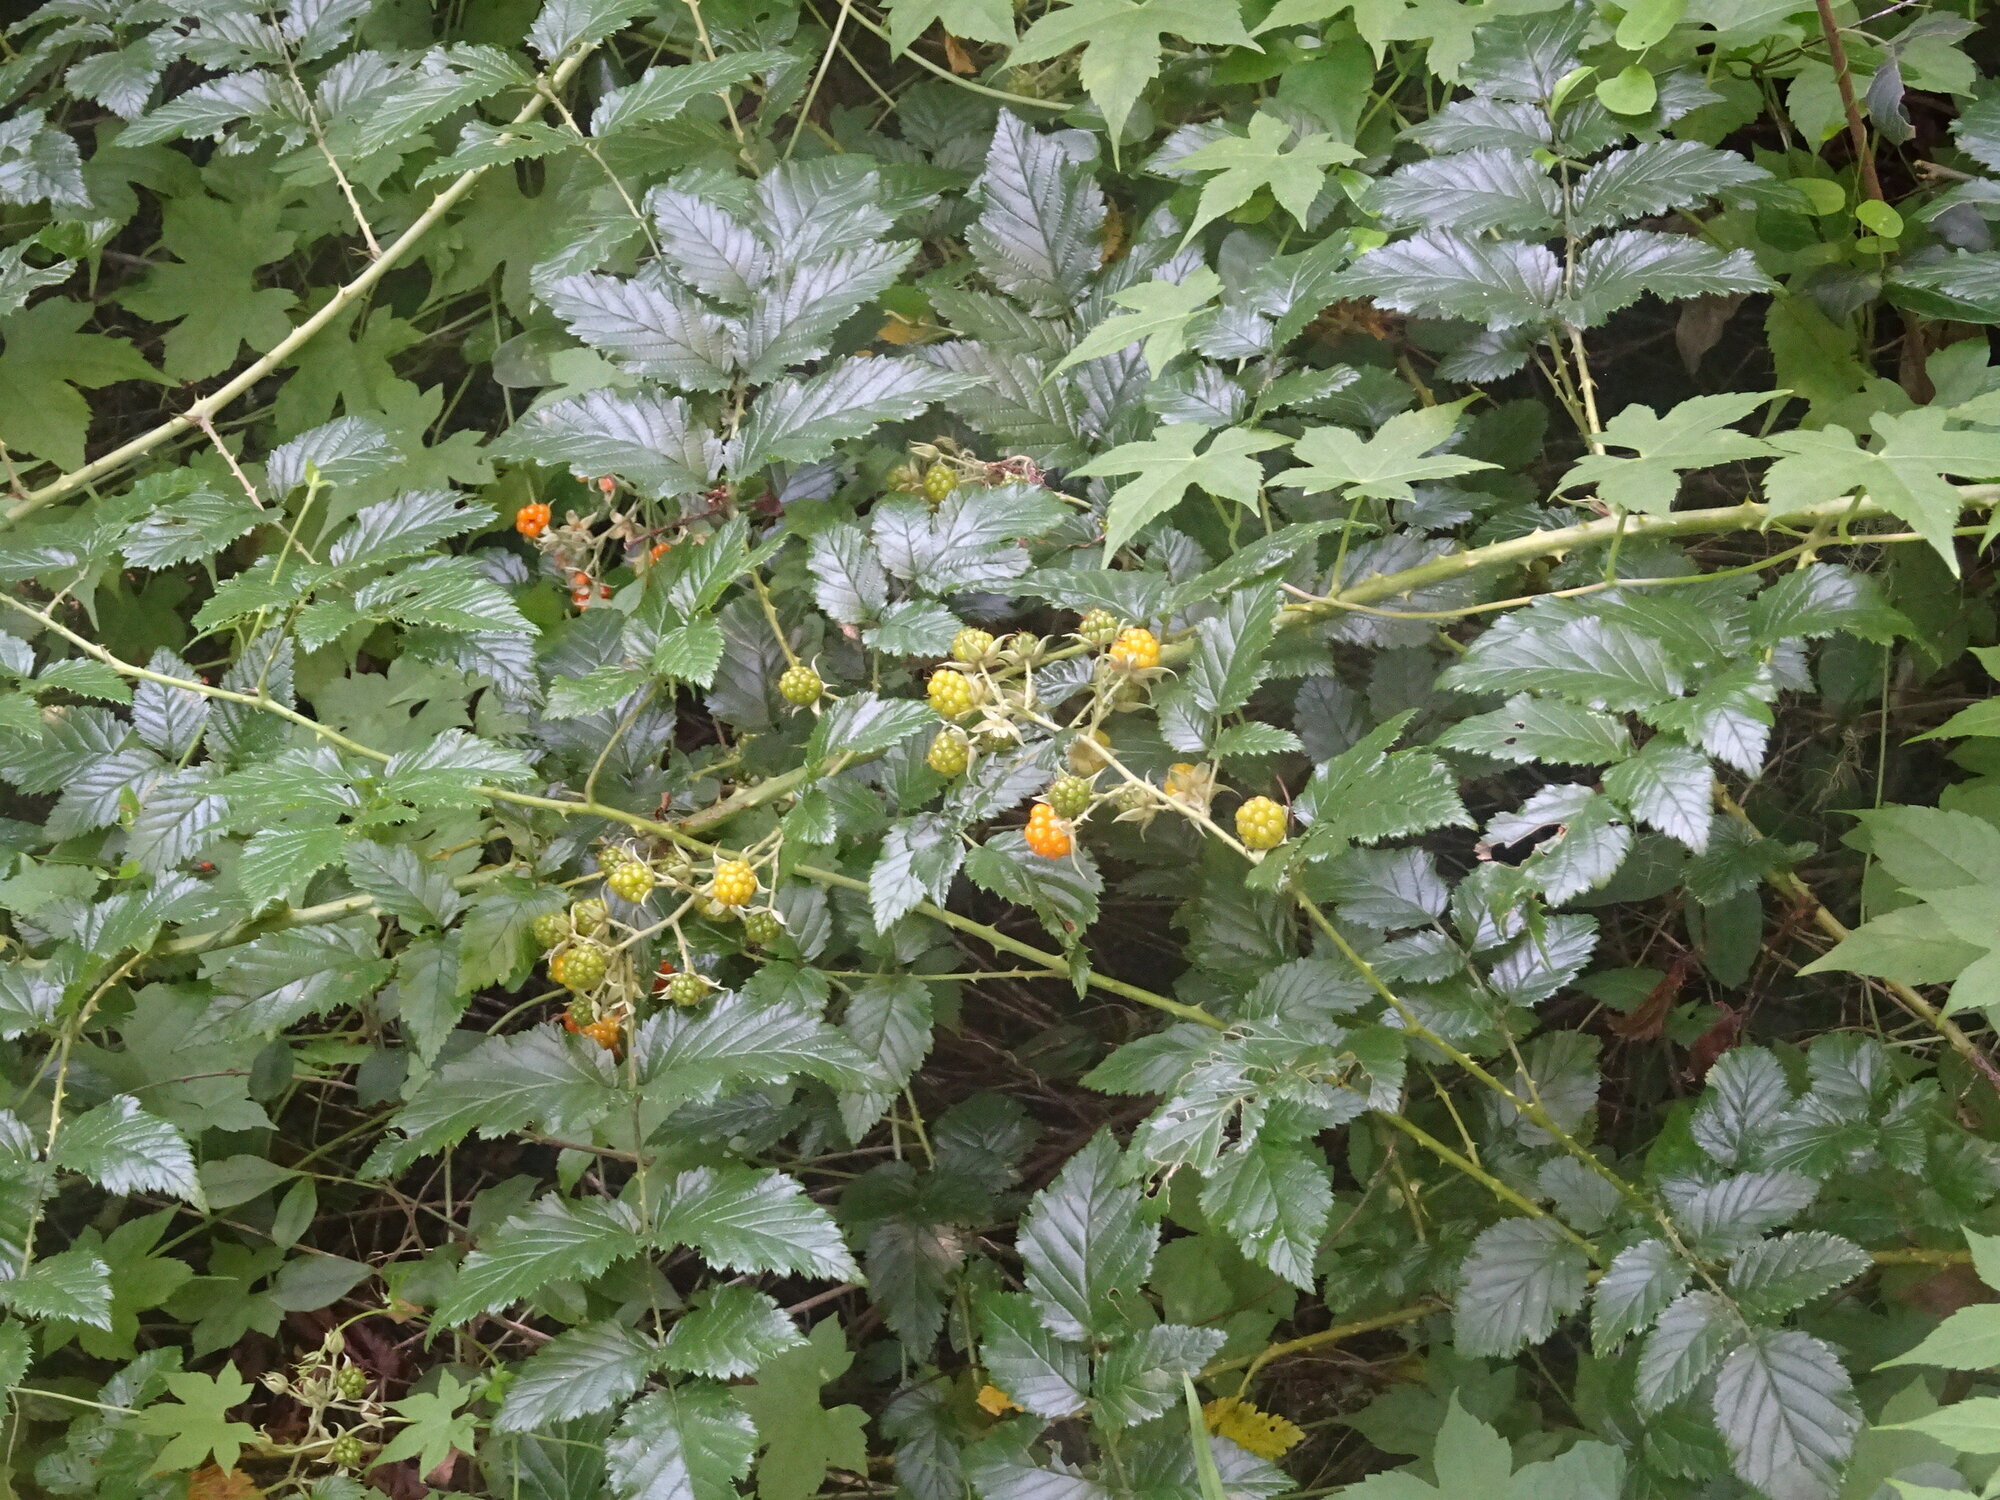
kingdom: Plantae
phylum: Tracheophyta
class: Magnoliopsida
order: Rosales
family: Rosaceae
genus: Rubus
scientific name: Rubus pinnatus
